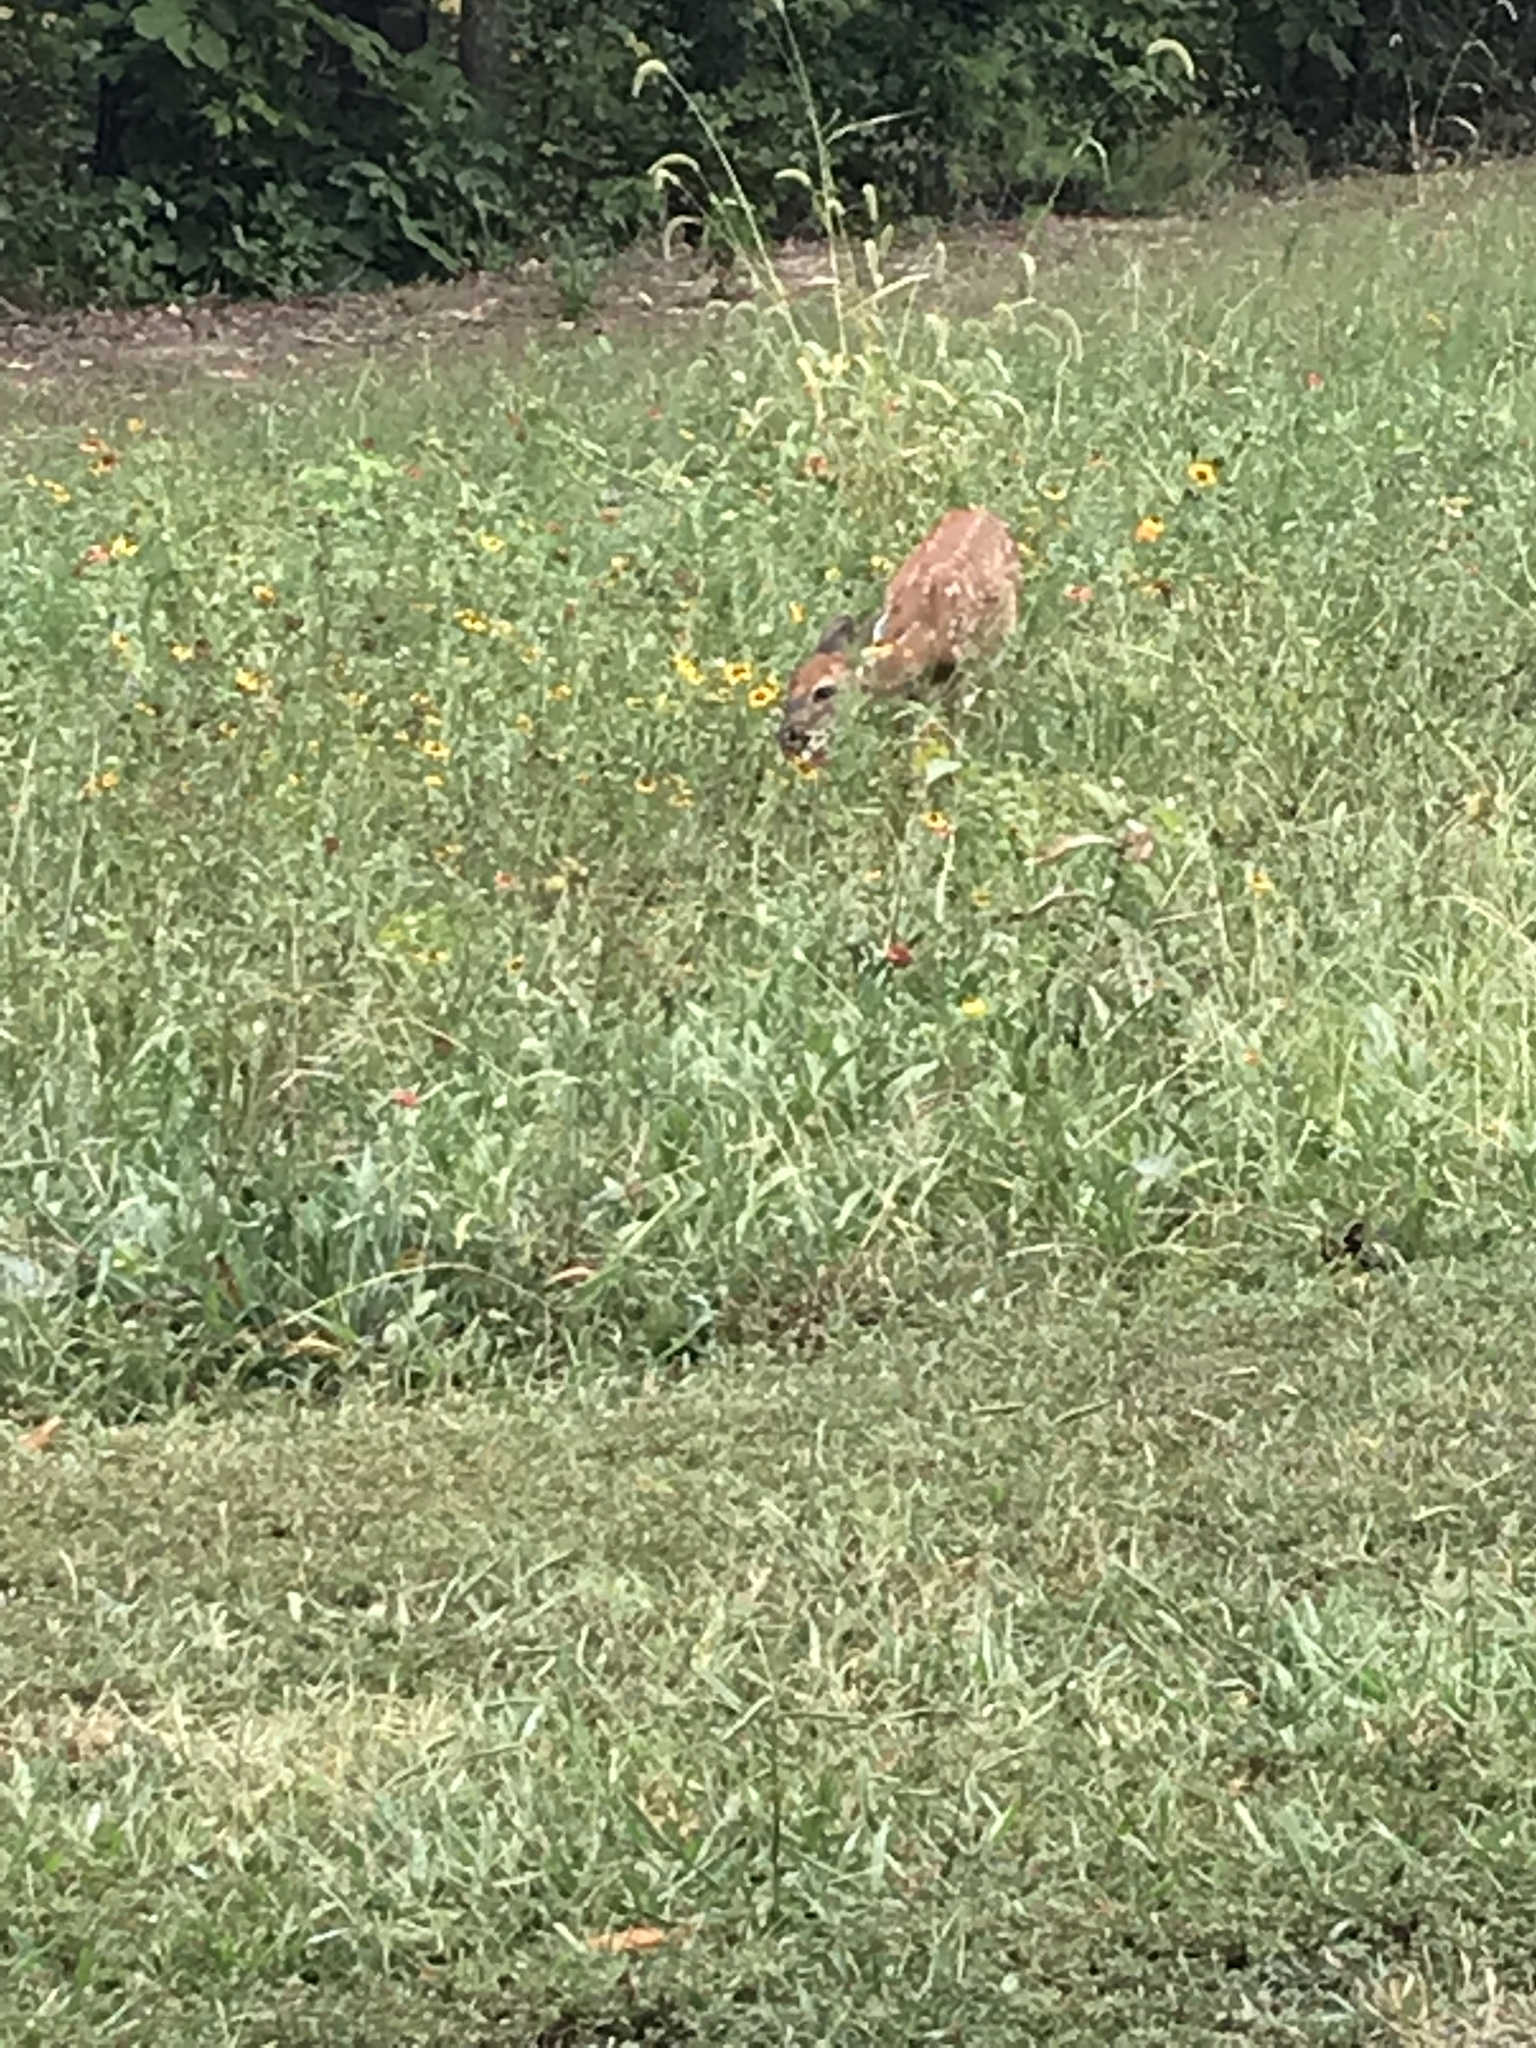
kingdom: Animalia
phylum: Chordata
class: Mammalia
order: Artiodactyla
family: Cervidae
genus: Odocoileus
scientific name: Odocoileus virginianus
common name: White-tailed deer
